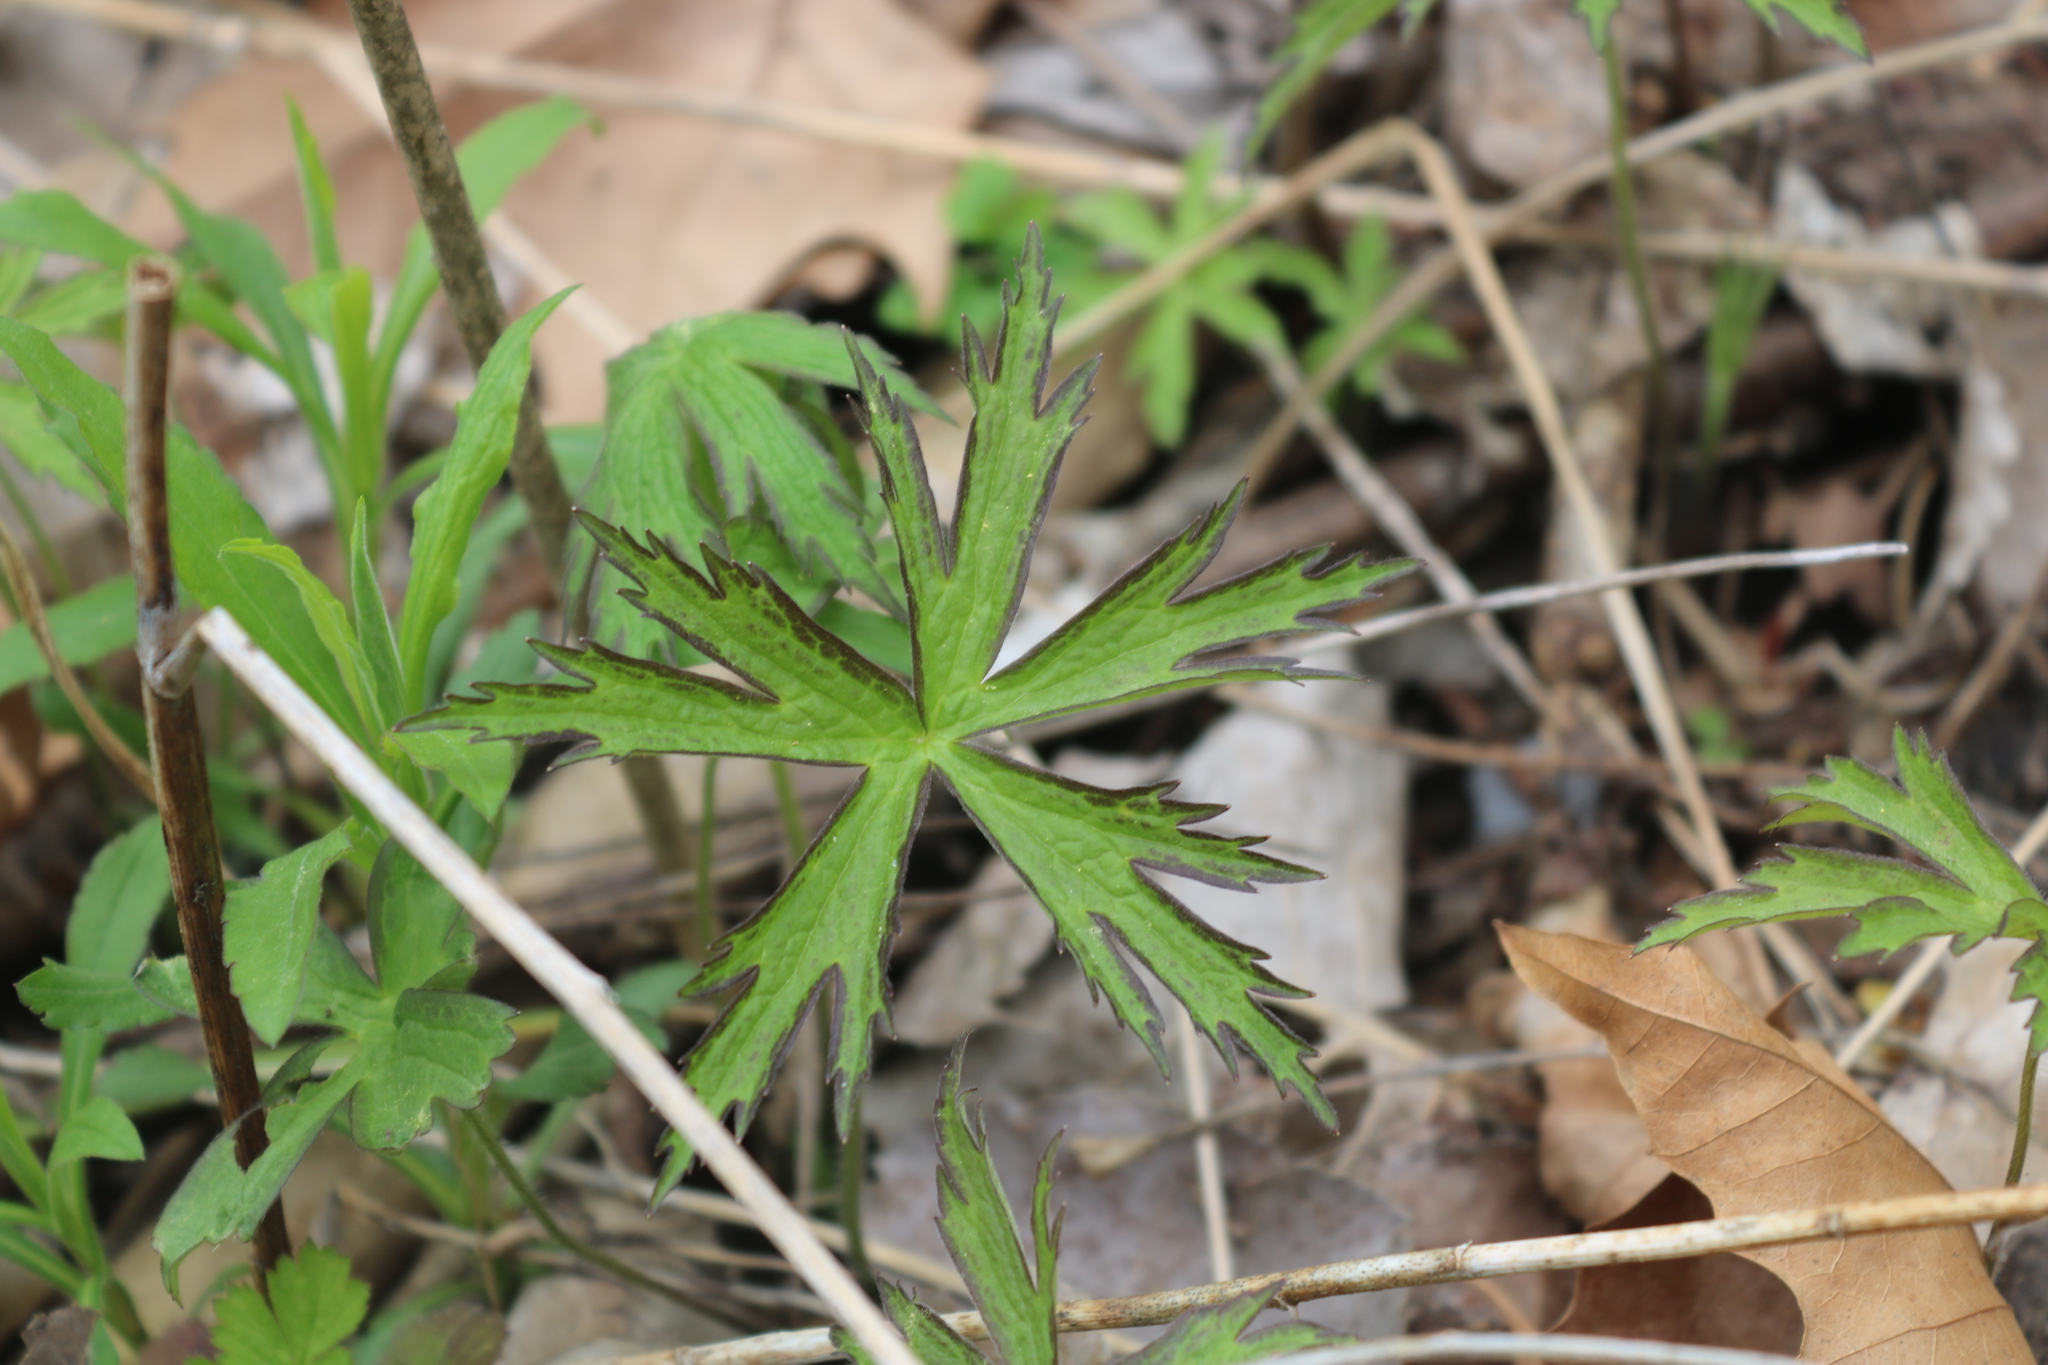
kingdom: Plantae
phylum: Tracheophyta
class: Magnoliopsida
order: Ranunculales
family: Ranunculaceae
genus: Anemonastrum
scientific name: Anemonastrum canadense
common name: Canada anemone
